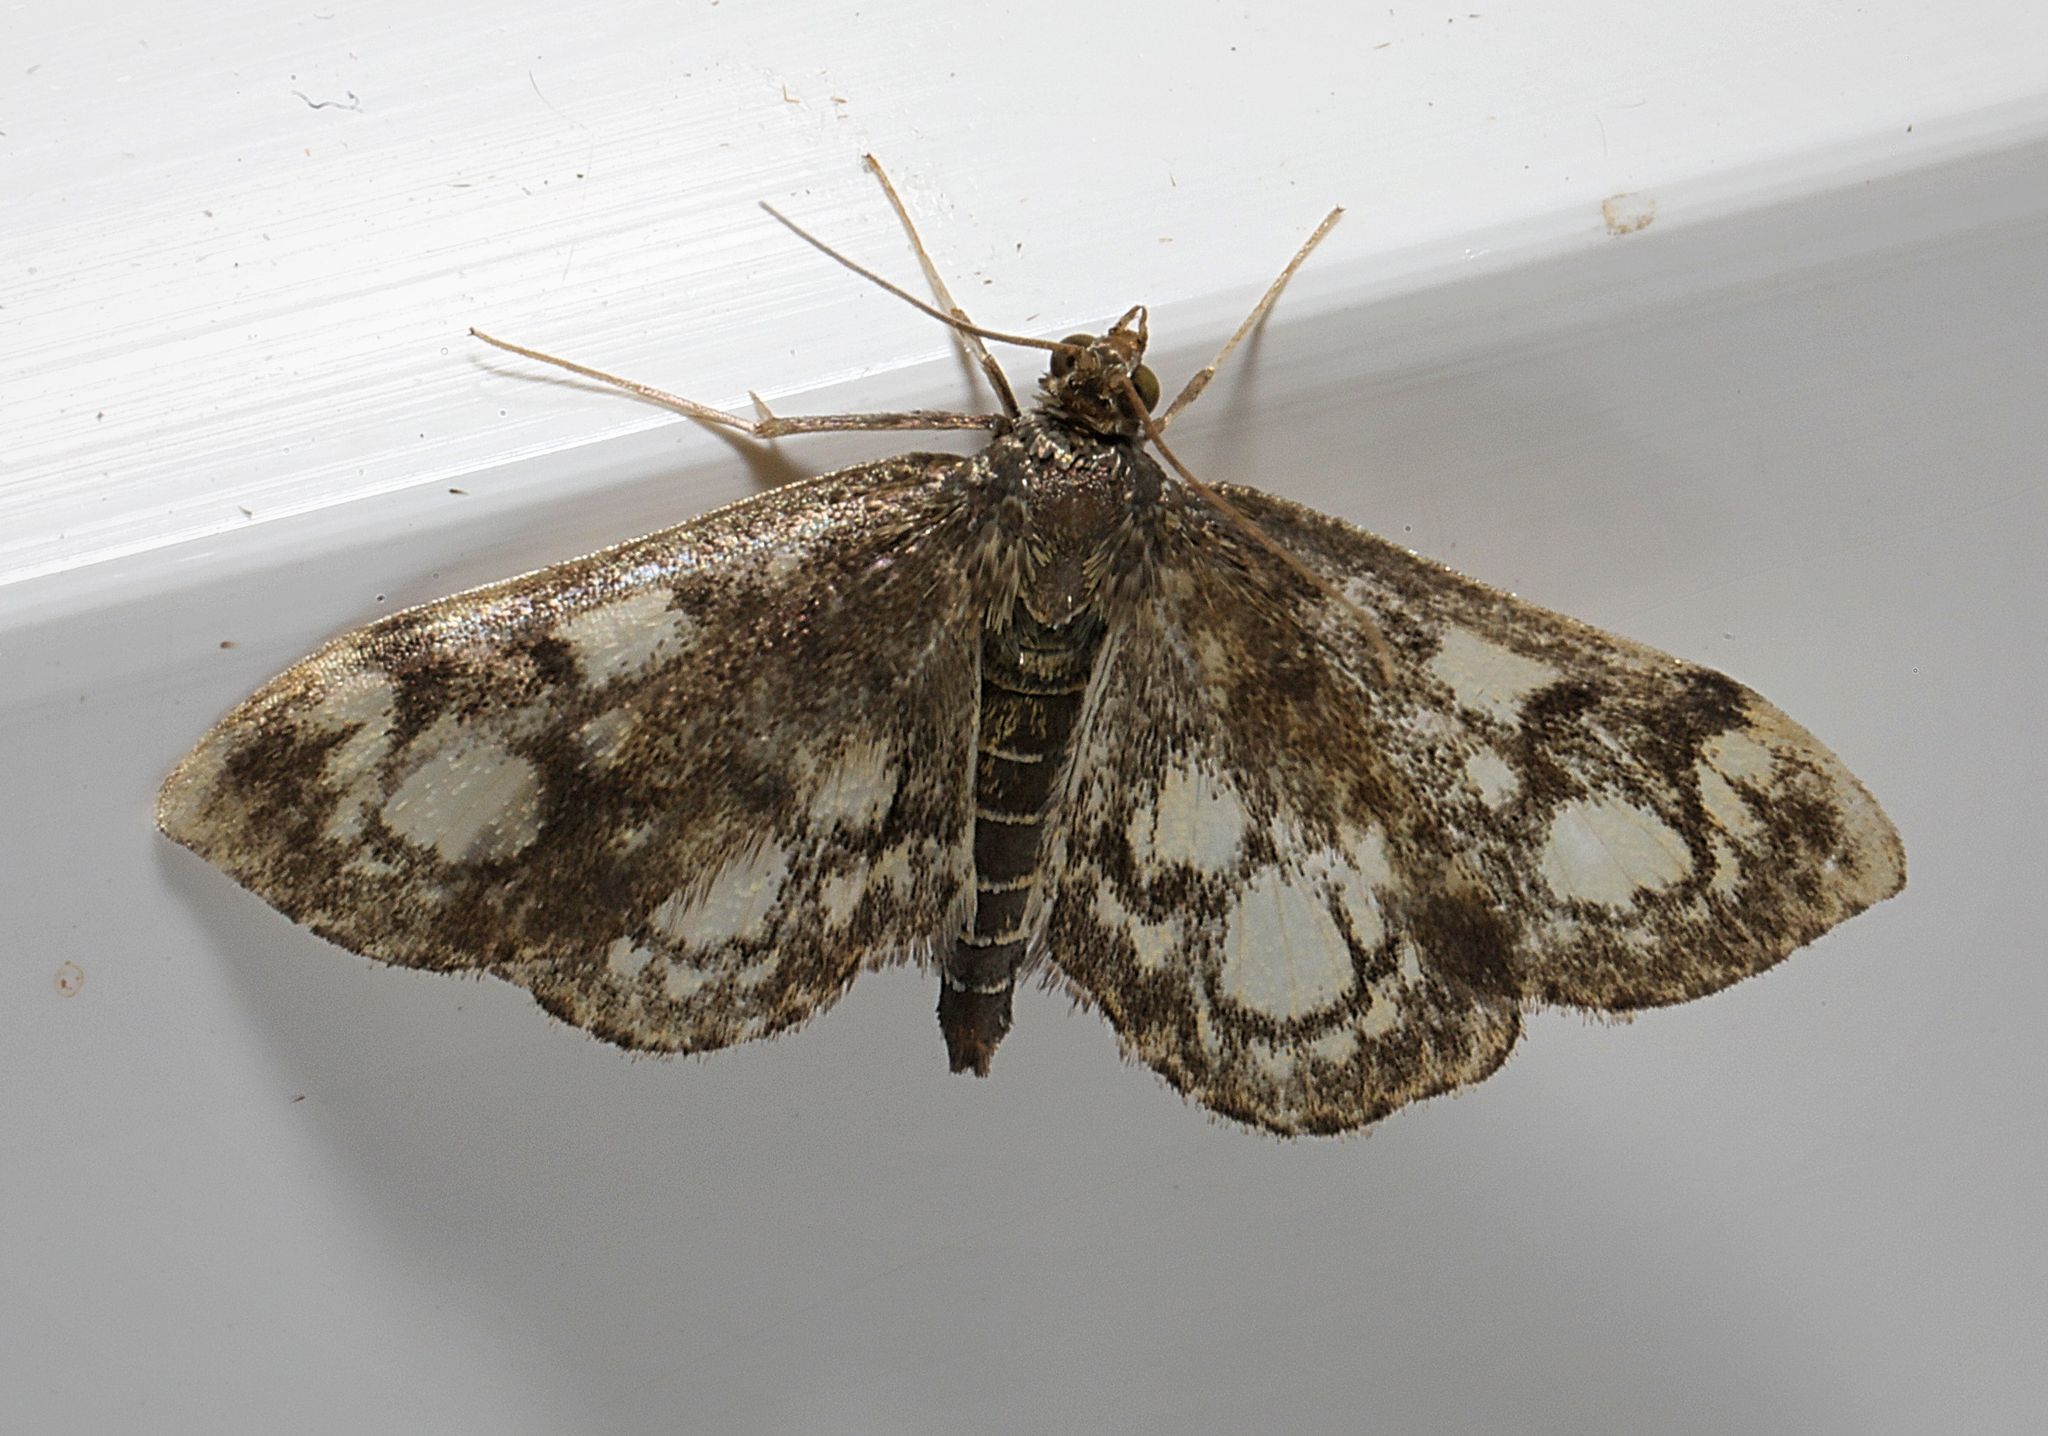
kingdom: Animalia
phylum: Arthropoda
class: Insecta
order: Lepidoptera
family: Crambidae
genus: Anania
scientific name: Anania coronata
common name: Elder pearl
